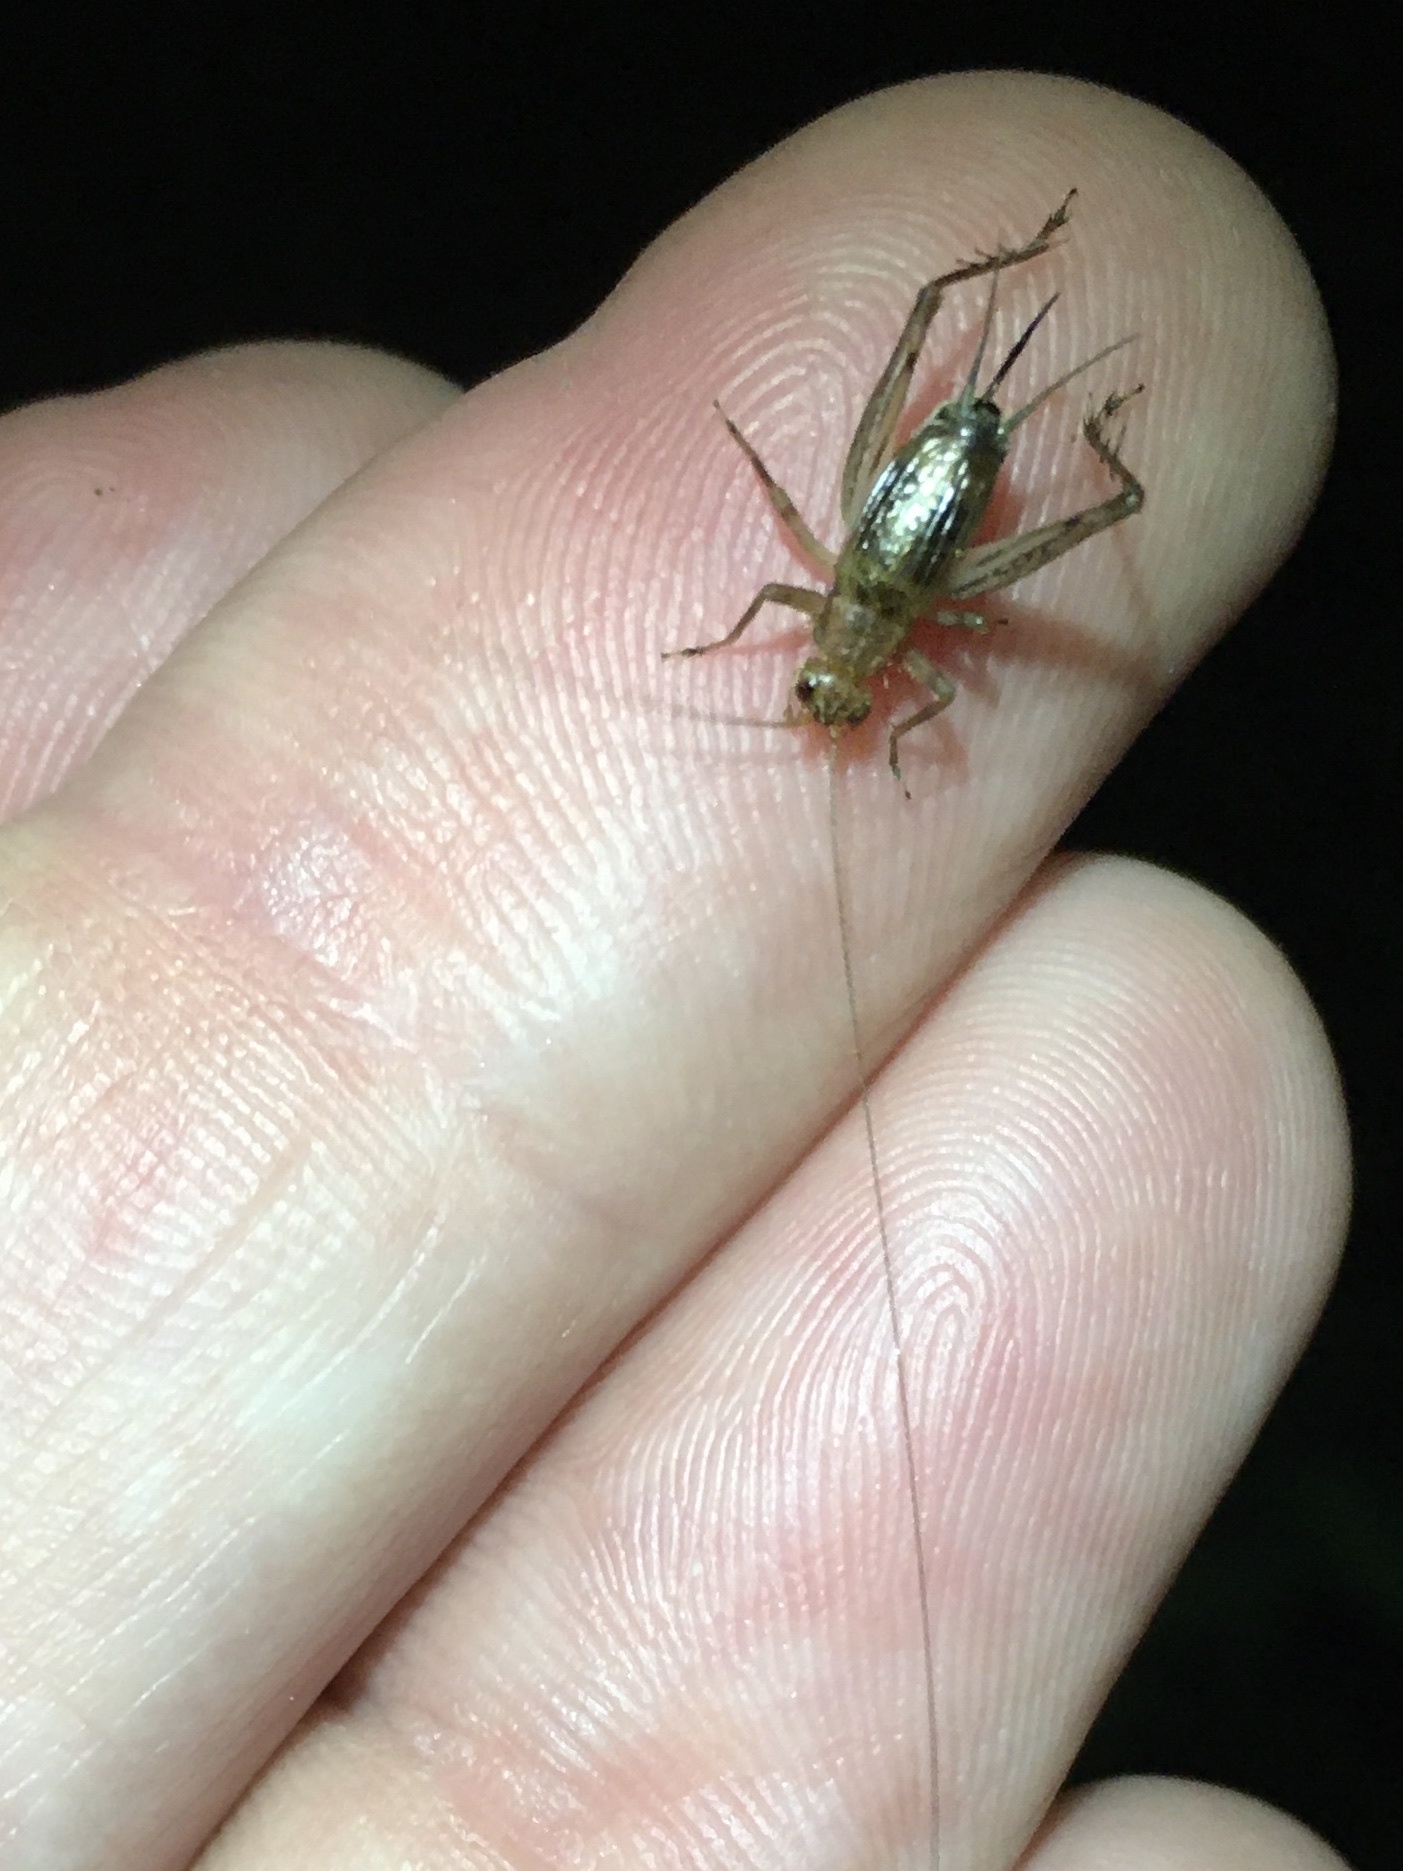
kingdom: Animalia
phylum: Arthropoda
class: Insecta
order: Orthoptera
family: Trigonidiidae
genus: Anaxipha
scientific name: Anaxipha exigua
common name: Say's bush cricket
